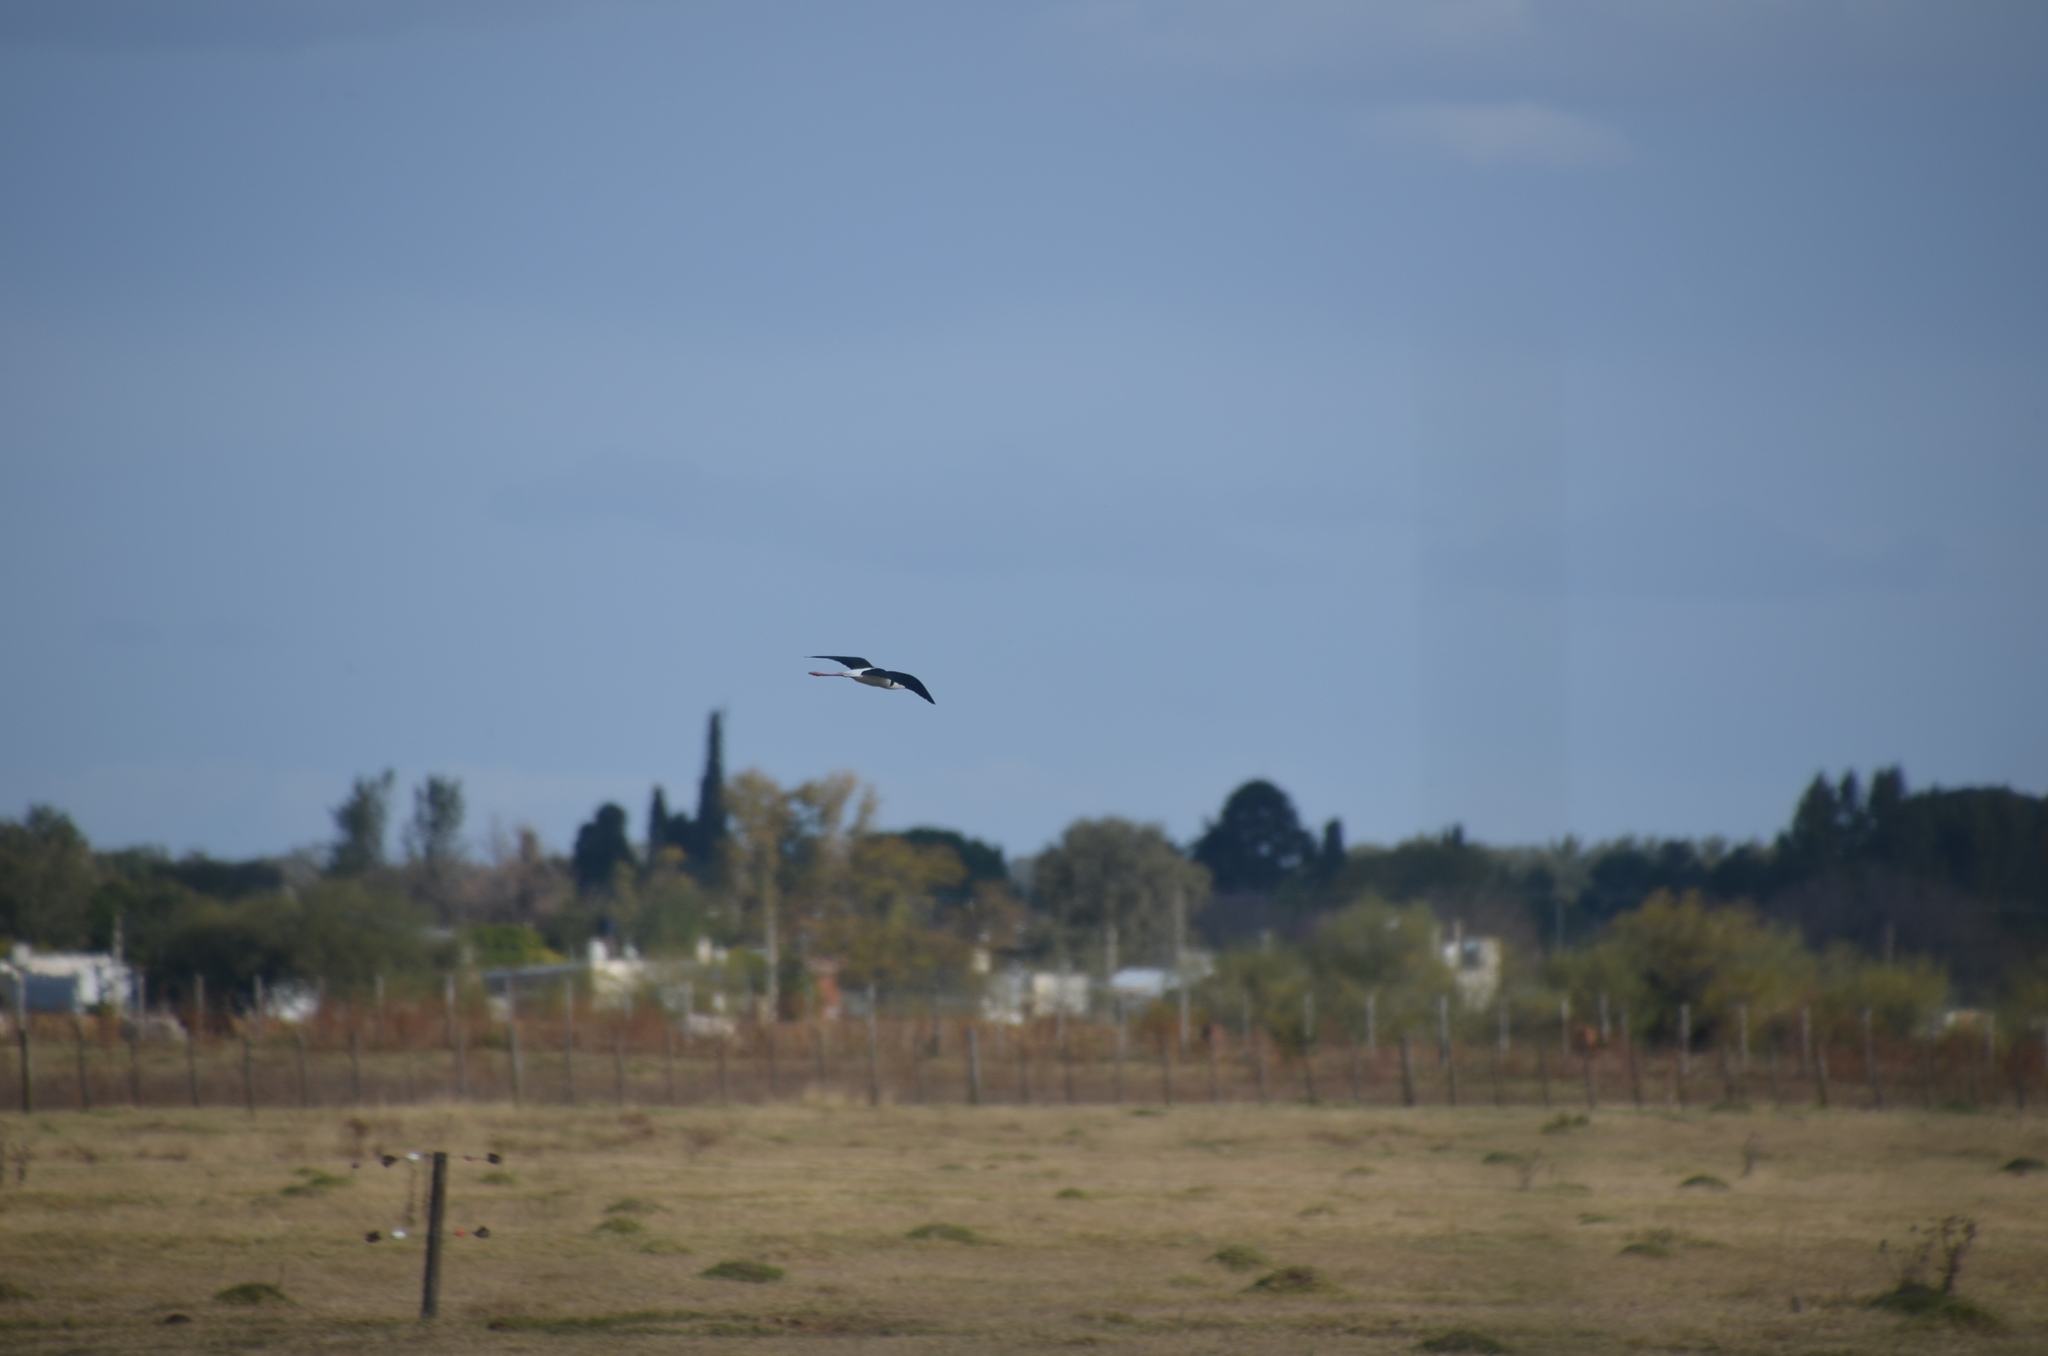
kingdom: Animalia
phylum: Chordata
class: Aves
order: Charadriiformes
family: Recurvirostridae
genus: Himantopus
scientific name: Himantopus mexicanus
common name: Black-necked stilt
